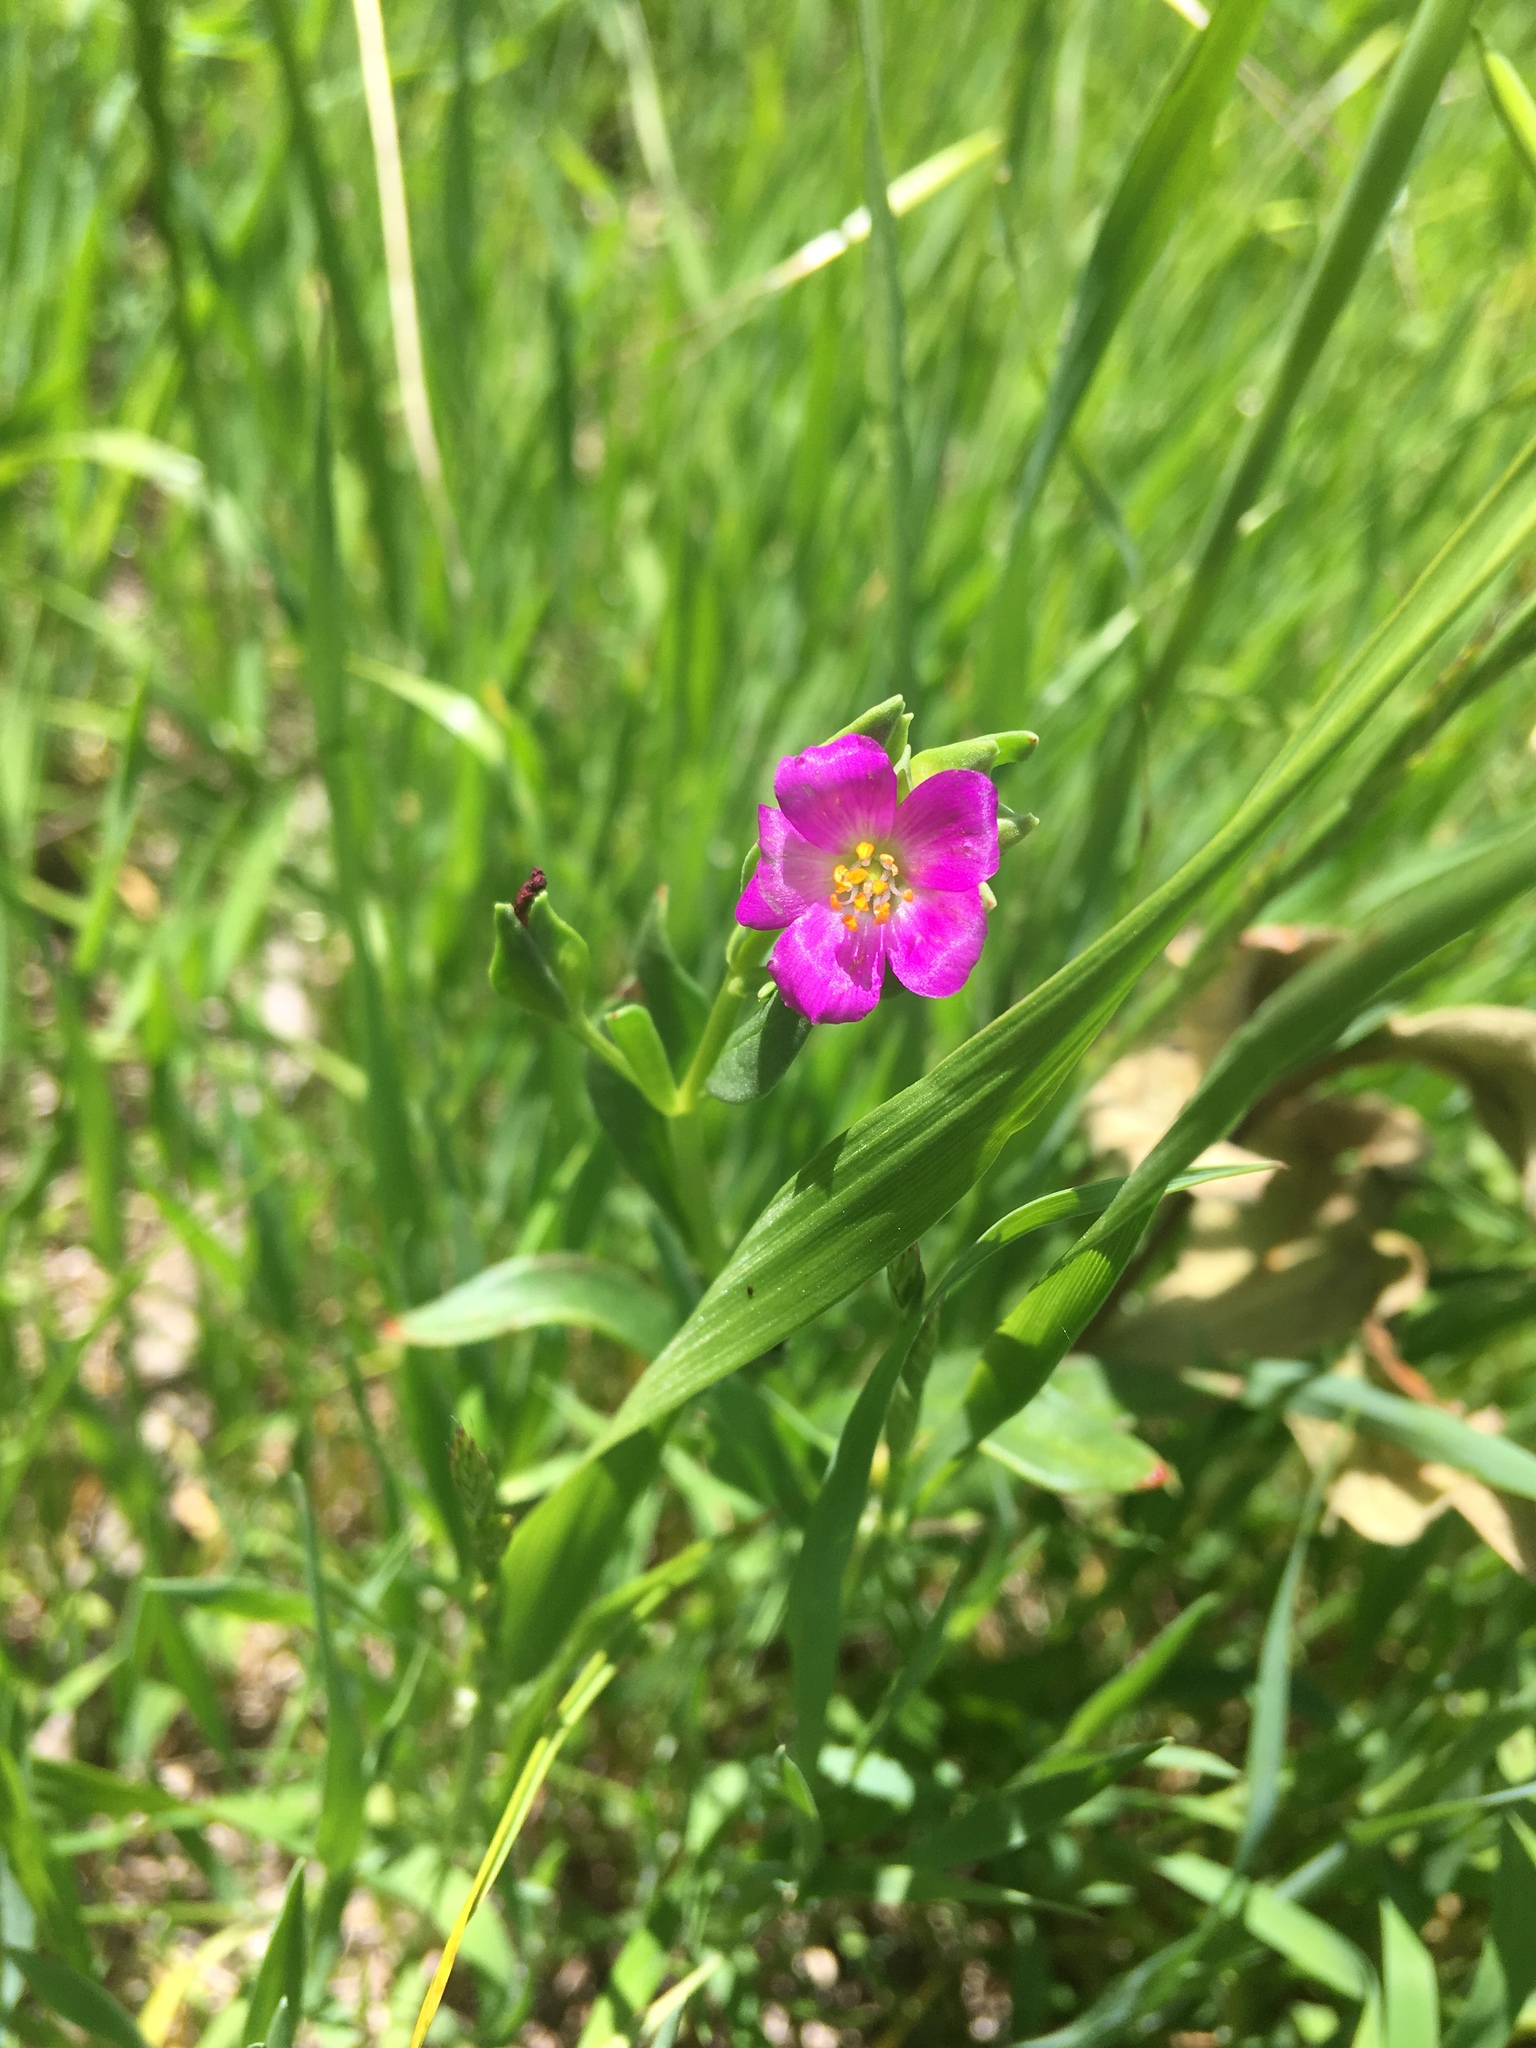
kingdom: Plantae
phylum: Tracheophyta
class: Magnoliopsida
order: Caryophyllales
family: Montiaceae
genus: Calandrinia
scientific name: Calandrinia menziesii
